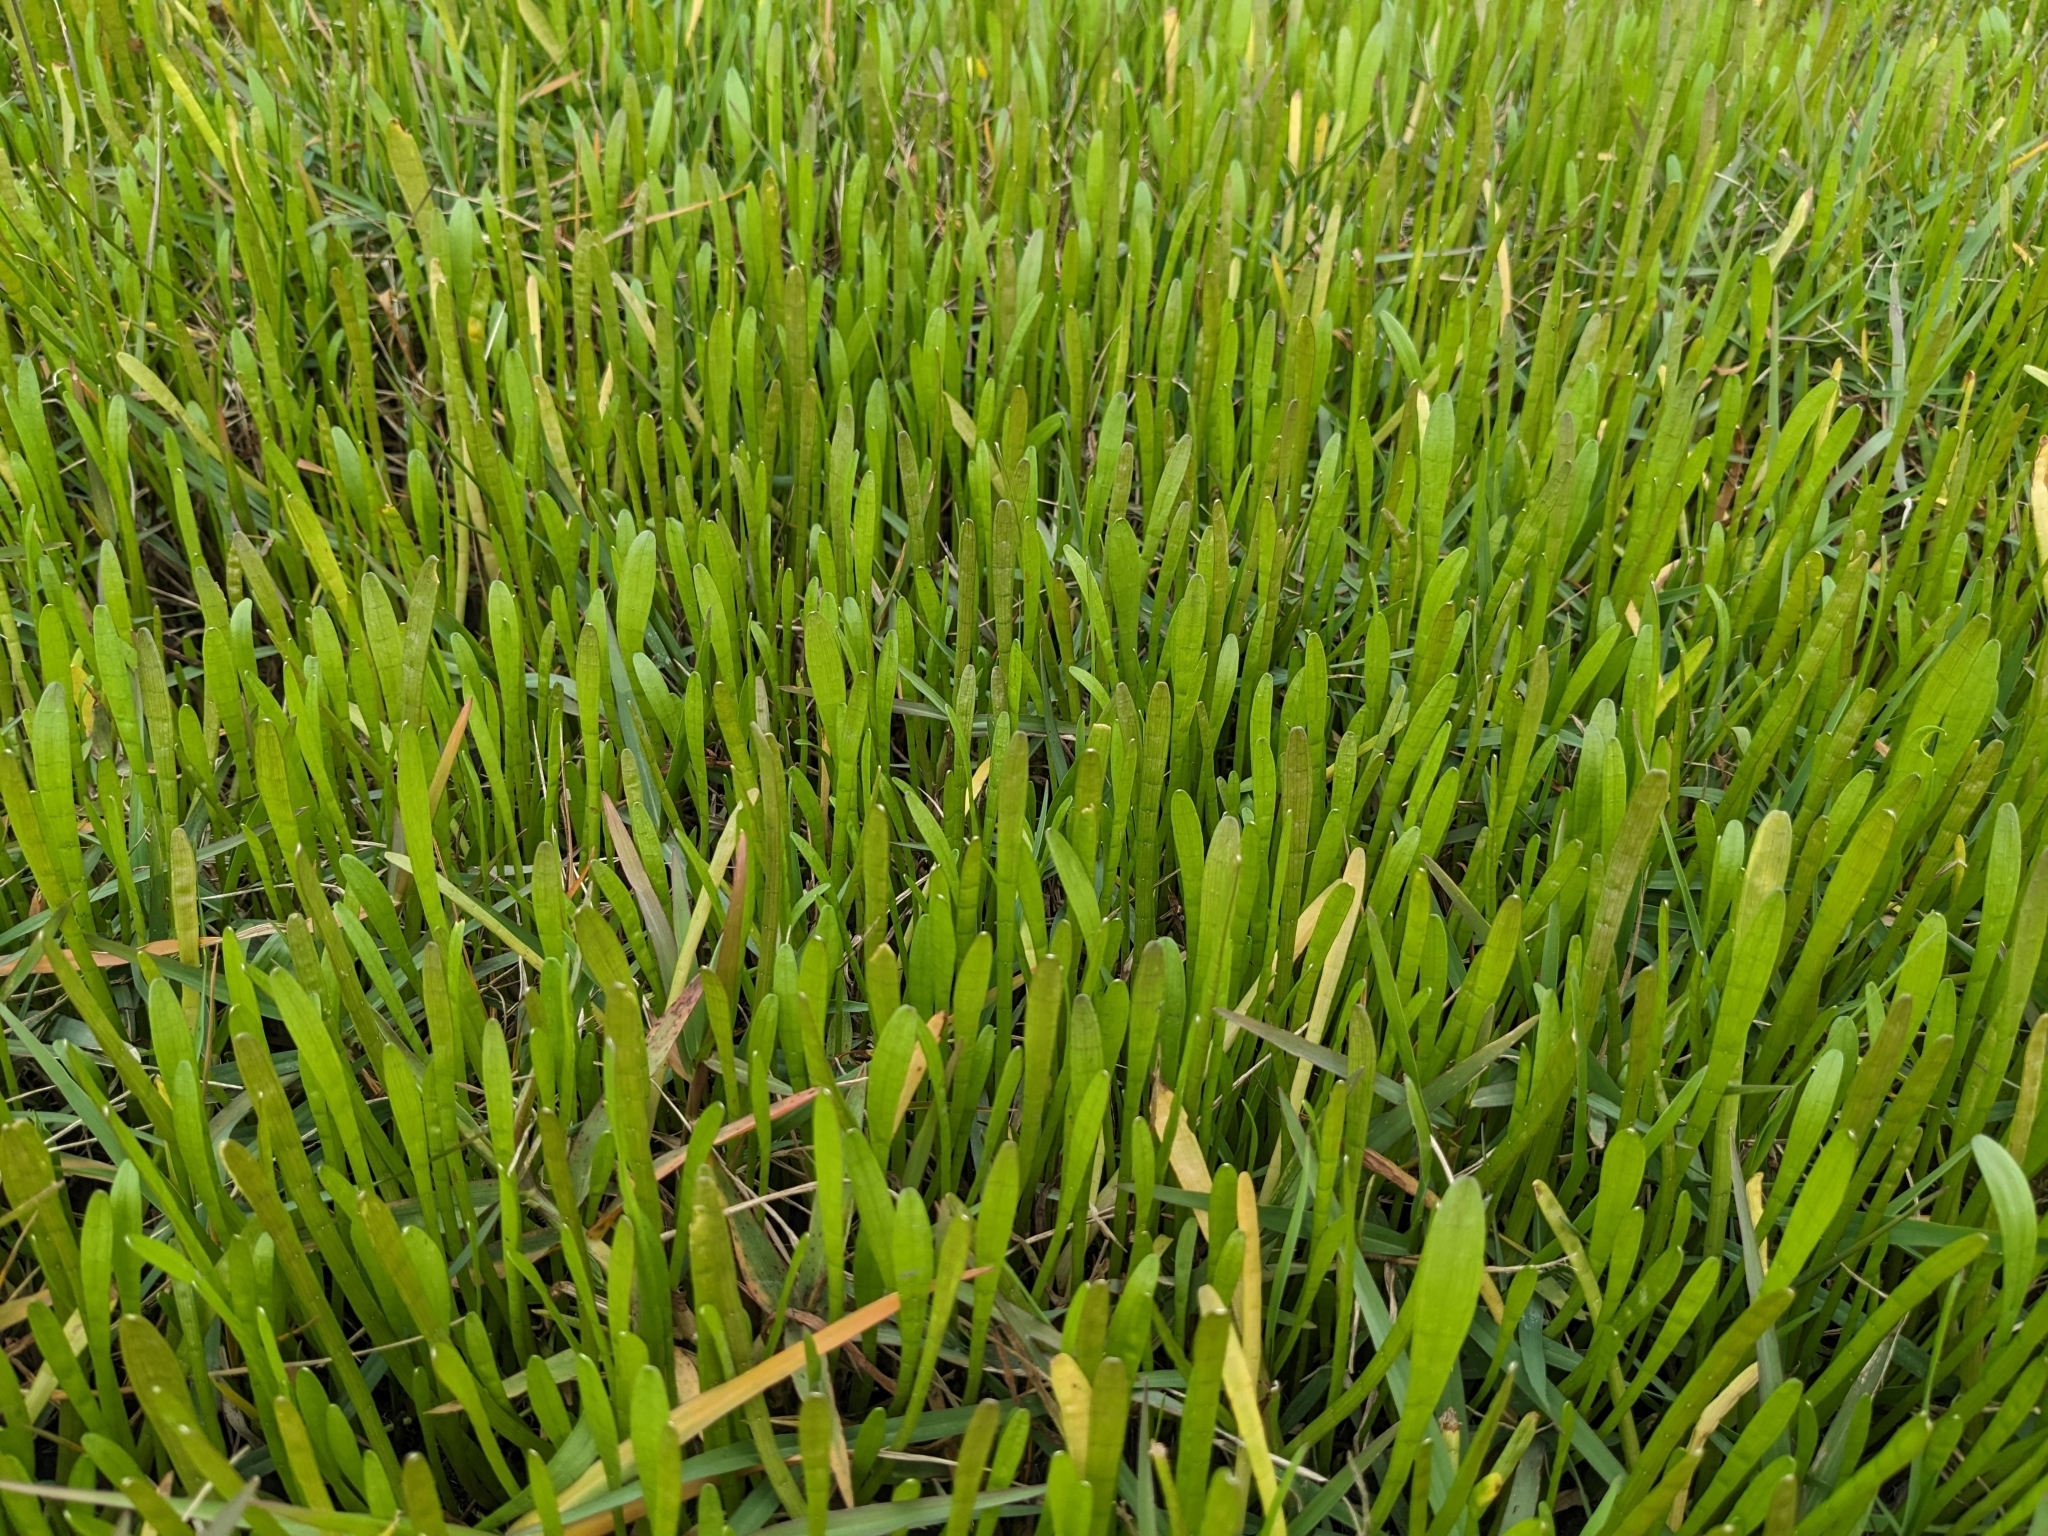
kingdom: Plantae
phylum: Tracheophyta
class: Magnoliopsida
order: Apiales
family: Apiaceae
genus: Lilaeopsis
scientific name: Lilaeopsis carolinensis
